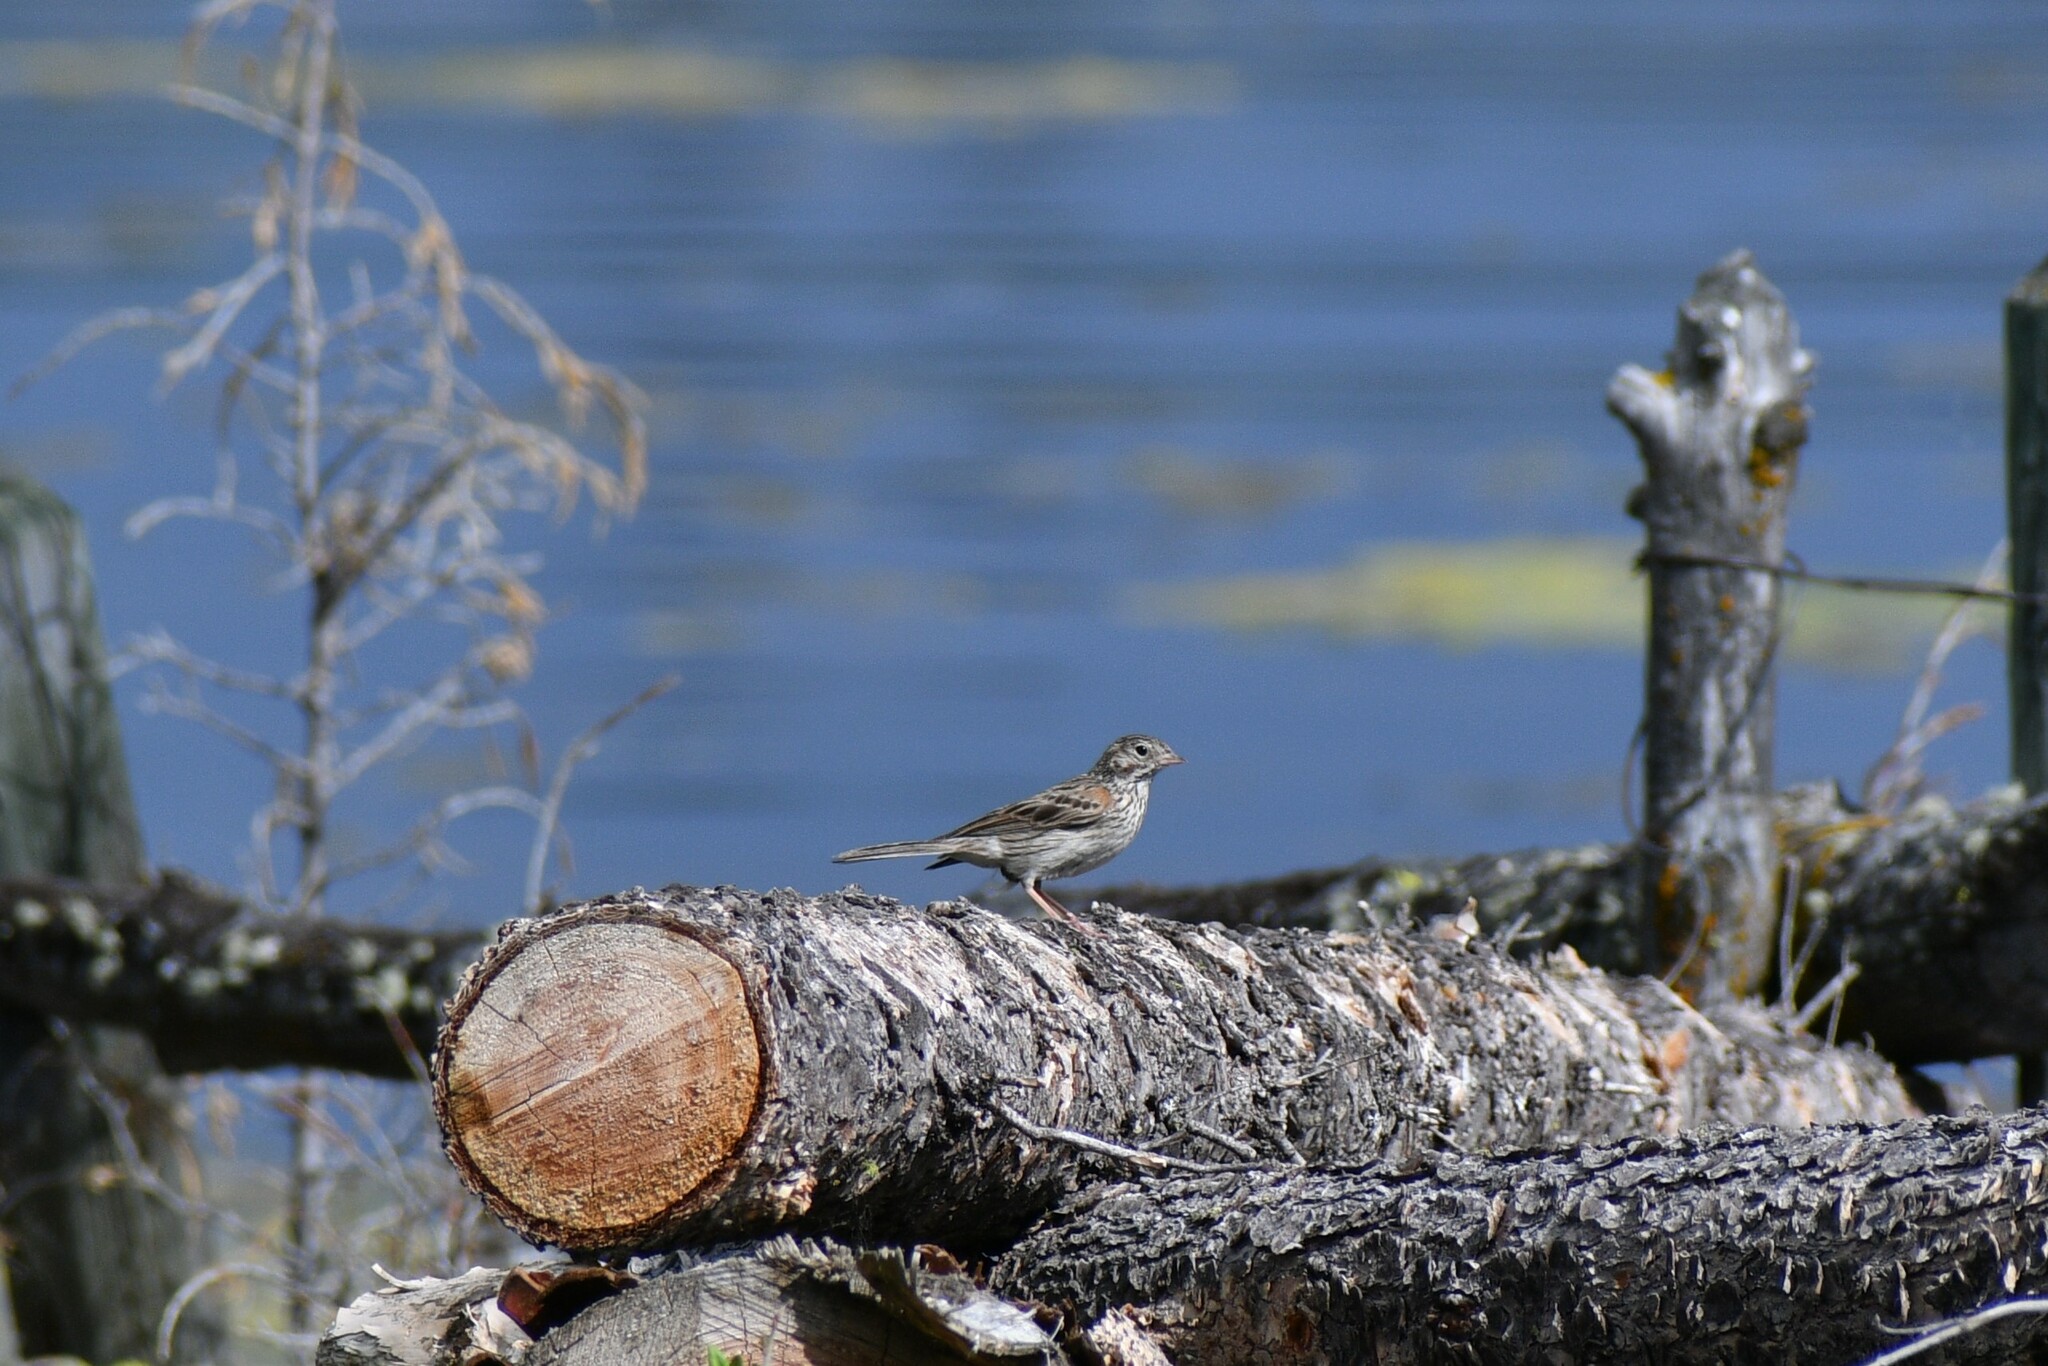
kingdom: Animalia
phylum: Chordata
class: Aves
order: Passeriformes
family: Passerellidae
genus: Pooecetes
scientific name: Pooecetes gramineus
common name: Vesper sparrow
